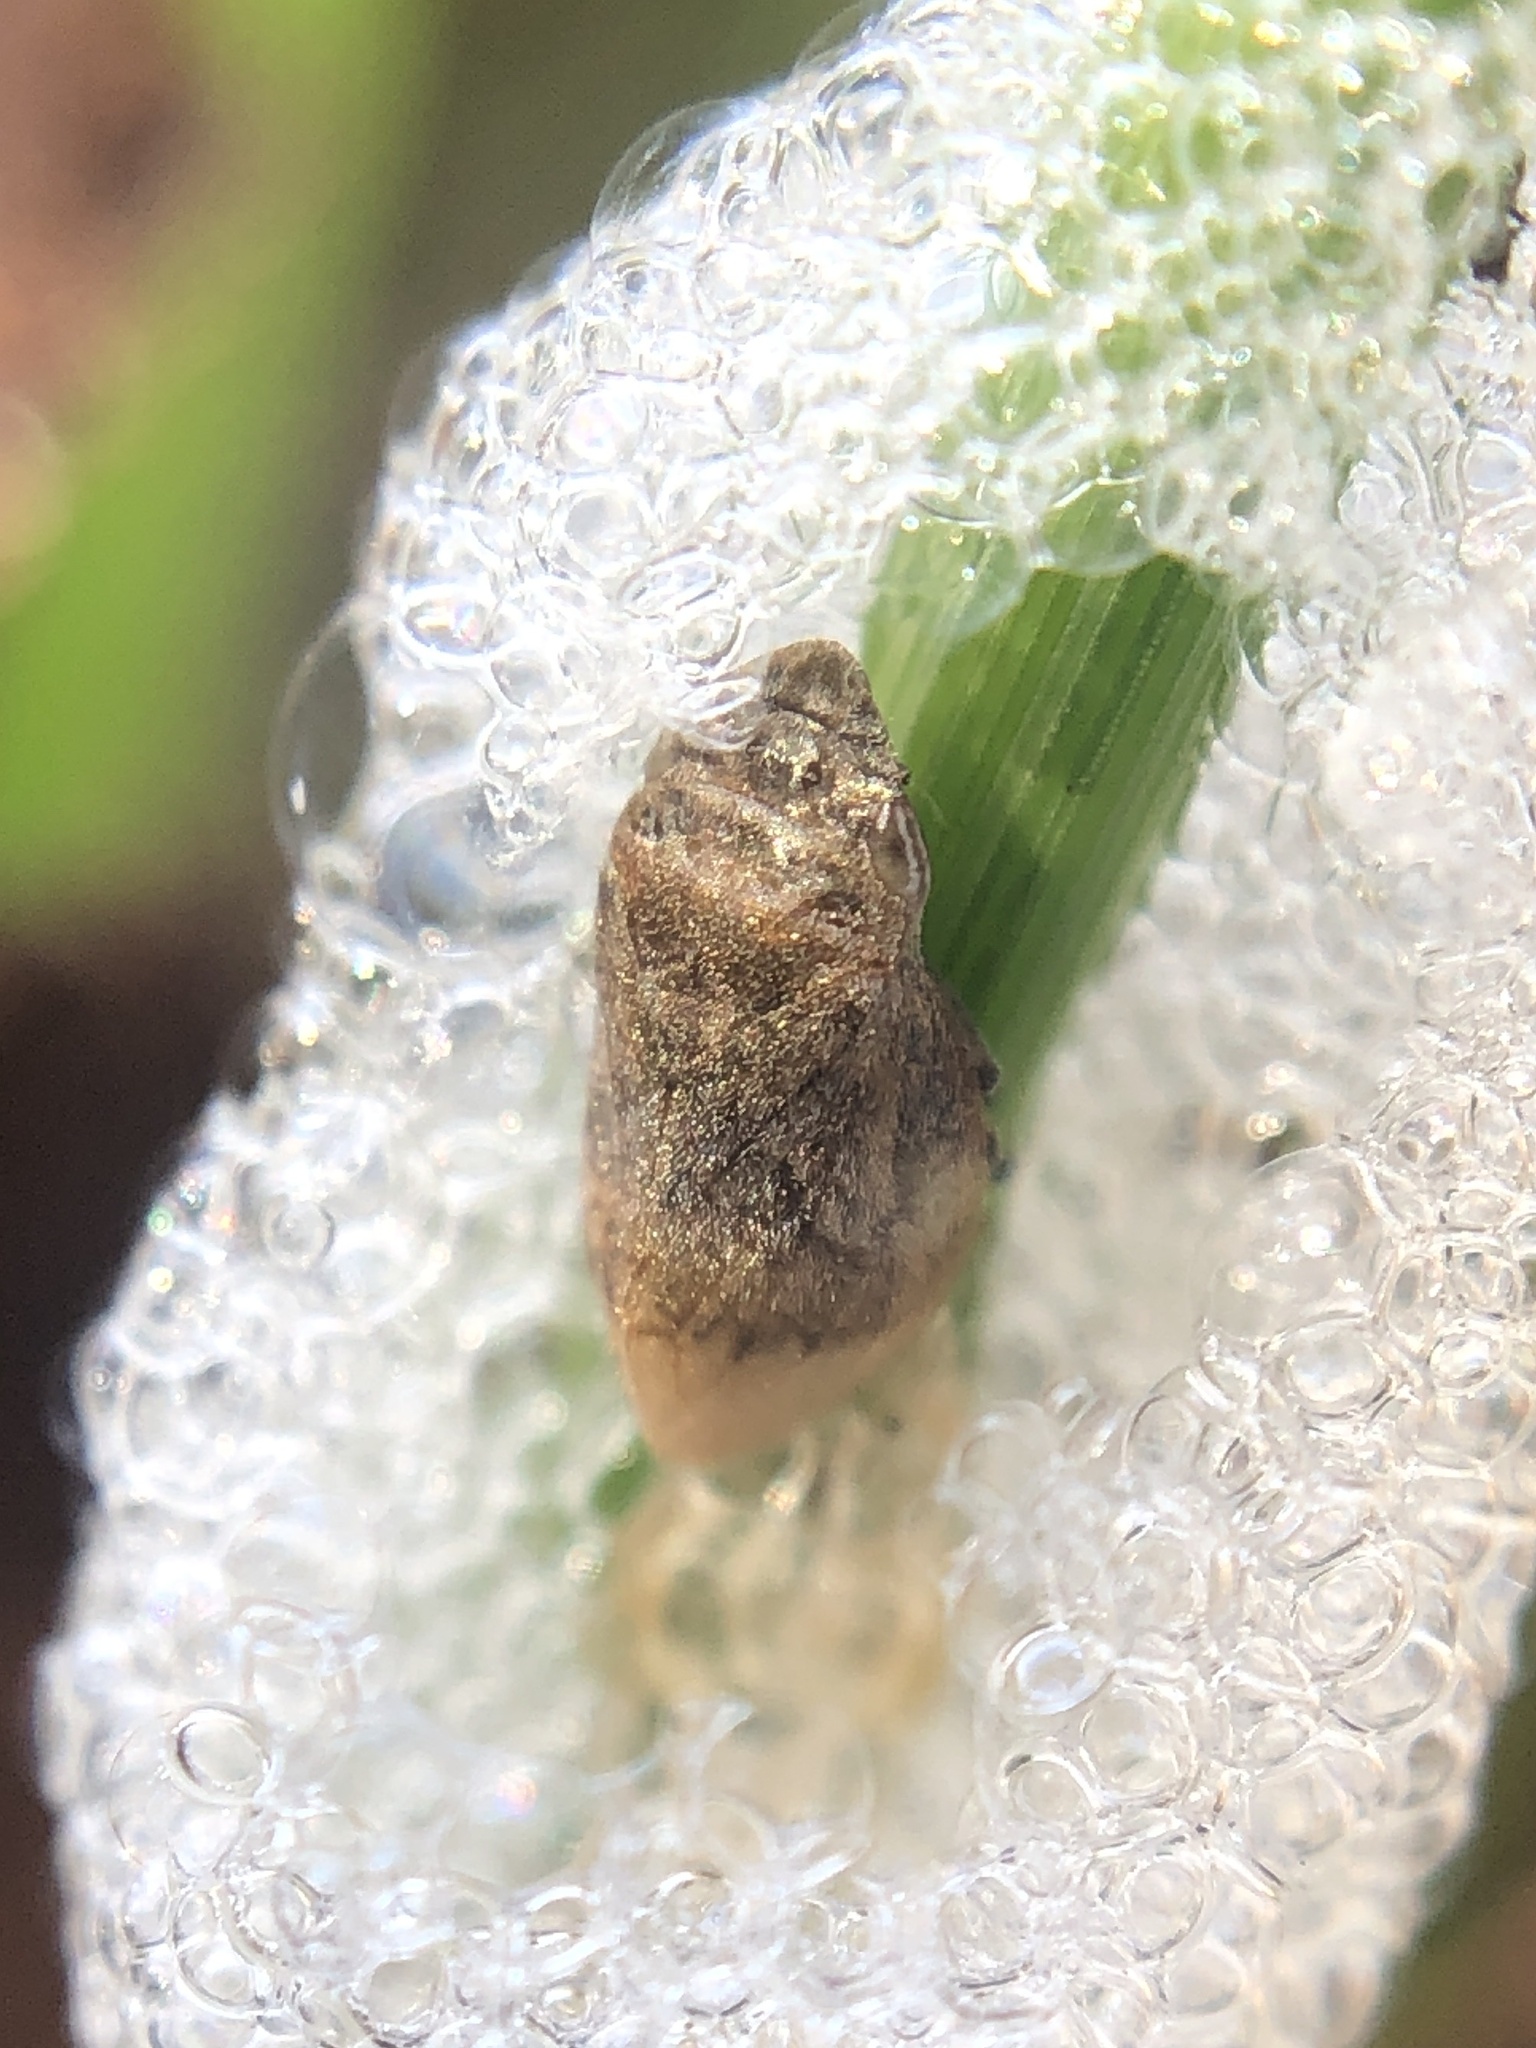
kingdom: Animalia
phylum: Arthropoda
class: Insecta
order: Hemiptera
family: Aphrophoridae
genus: Lepyronia
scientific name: Lepyronia angulifera
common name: Angular spittlebug
